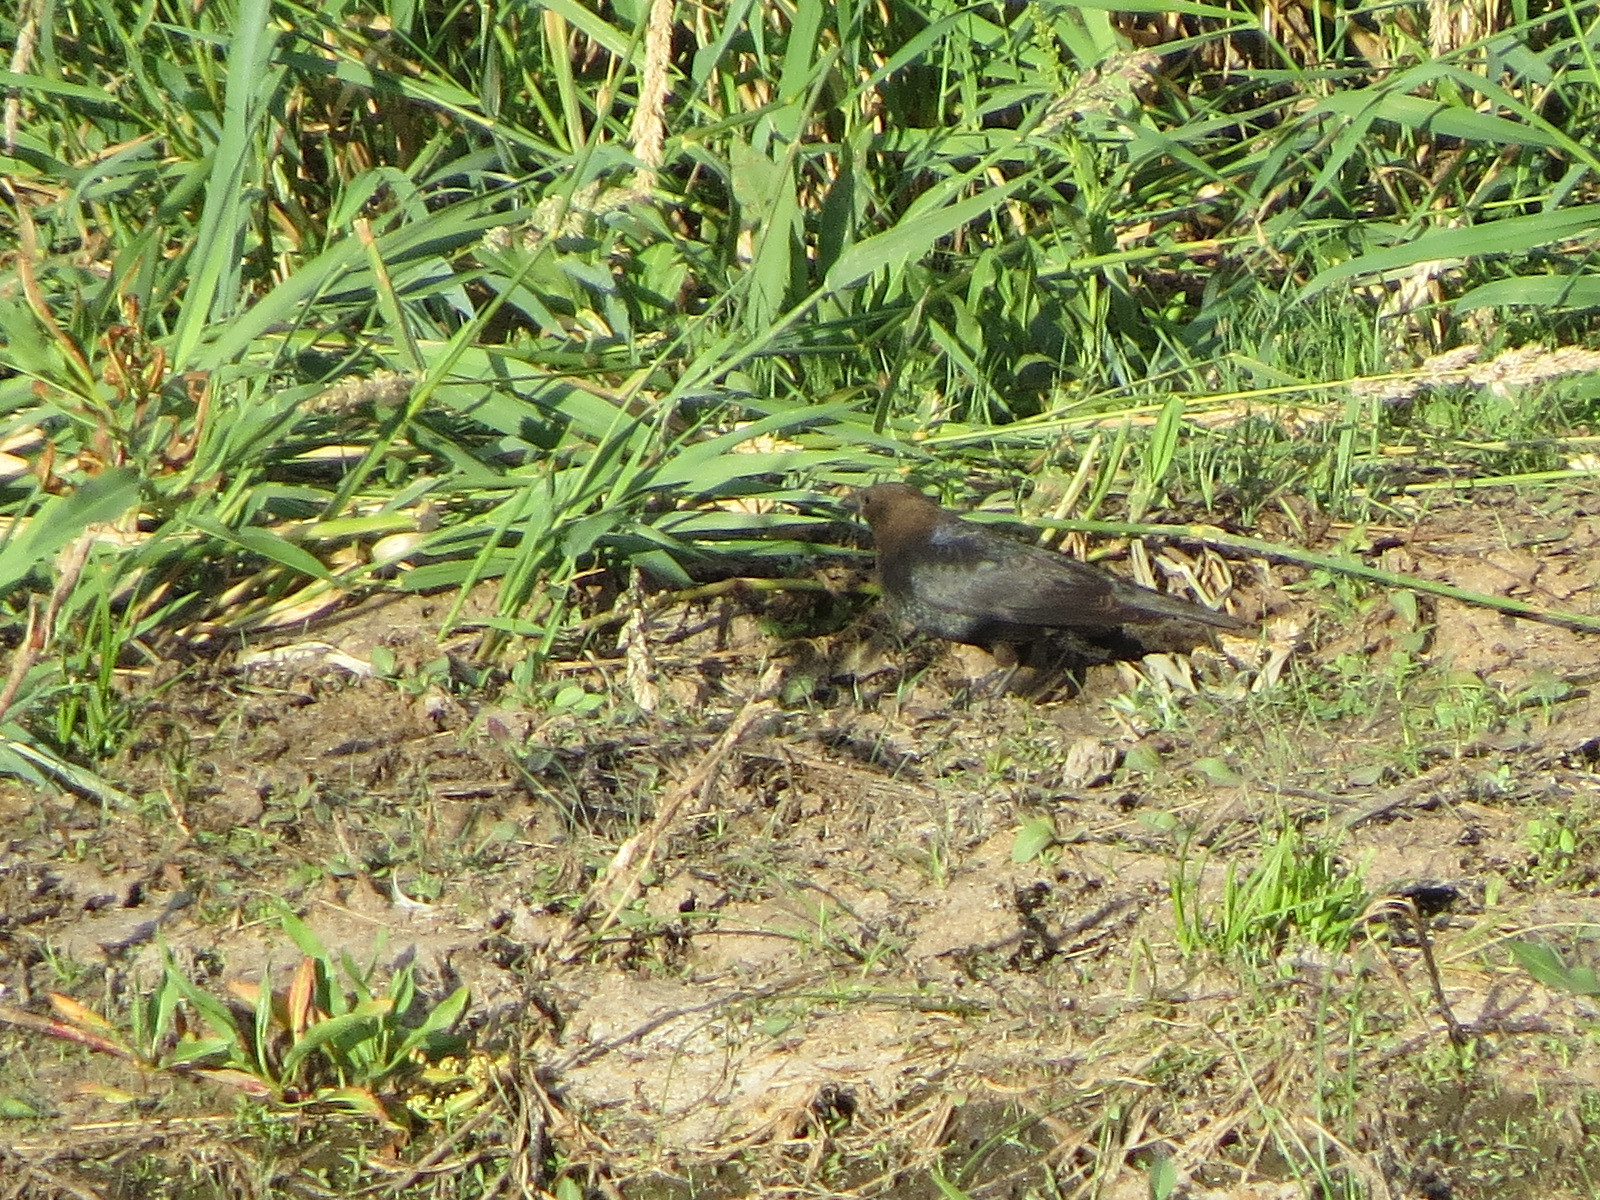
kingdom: Animalia
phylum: Chordata
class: Aves
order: Passeriformes
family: Icteridae
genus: Molothrus
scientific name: Molothrus ater
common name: Brown-headed cowbird
